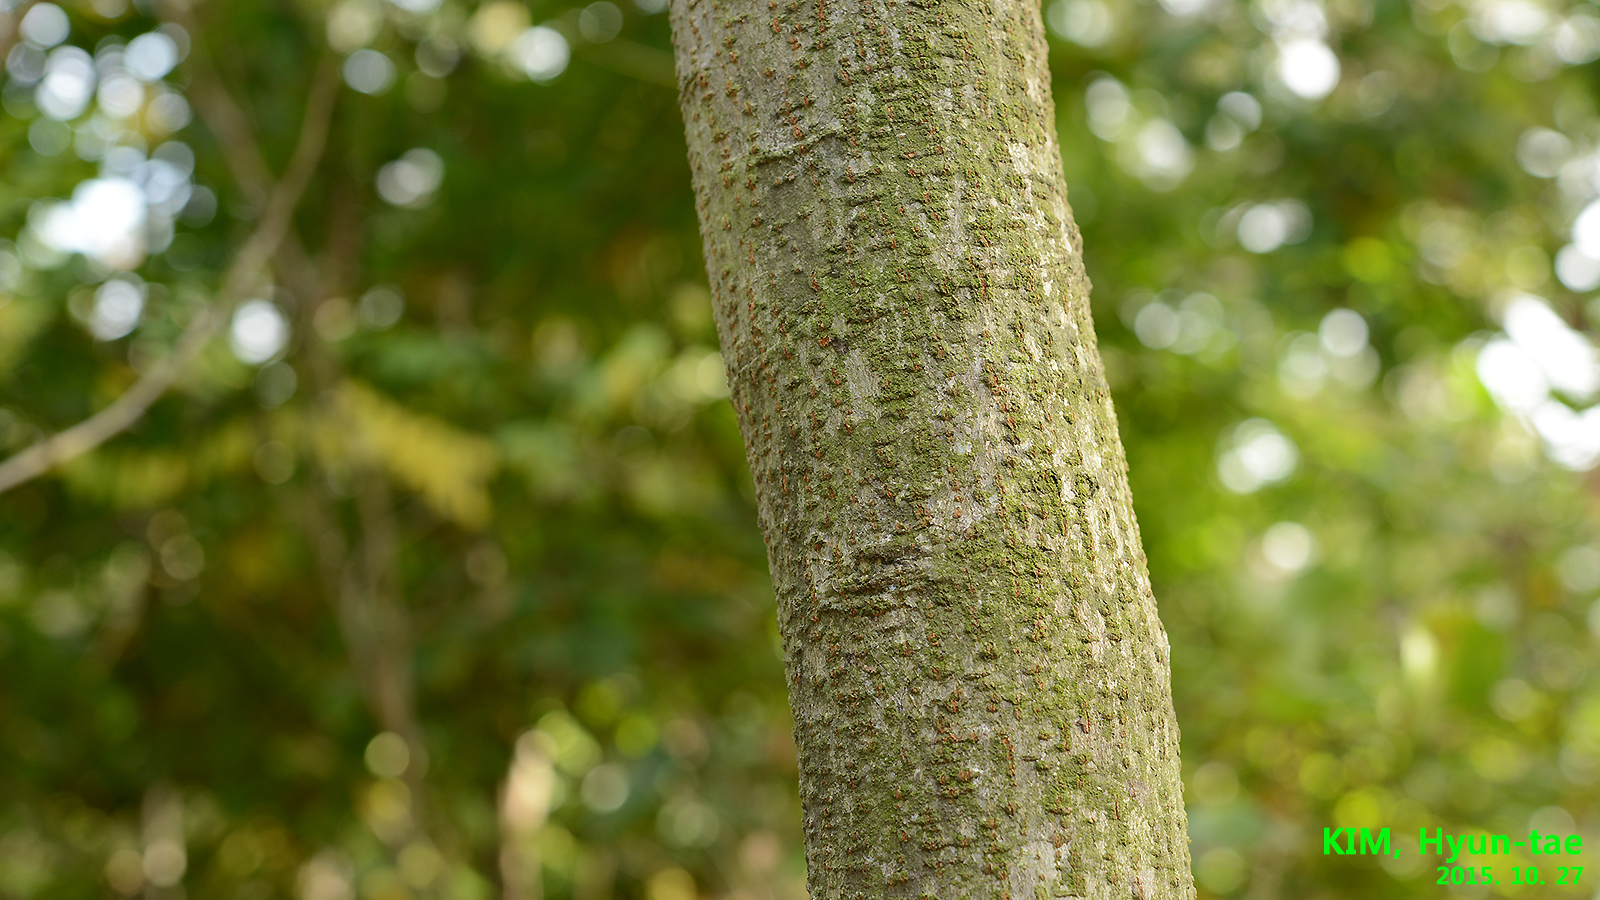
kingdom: Plantae
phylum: Tracheophyta
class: Magnoliopsida
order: Fabales
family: Fabaceae
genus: Albizia
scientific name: Albizia julibrissin
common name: Silktree
